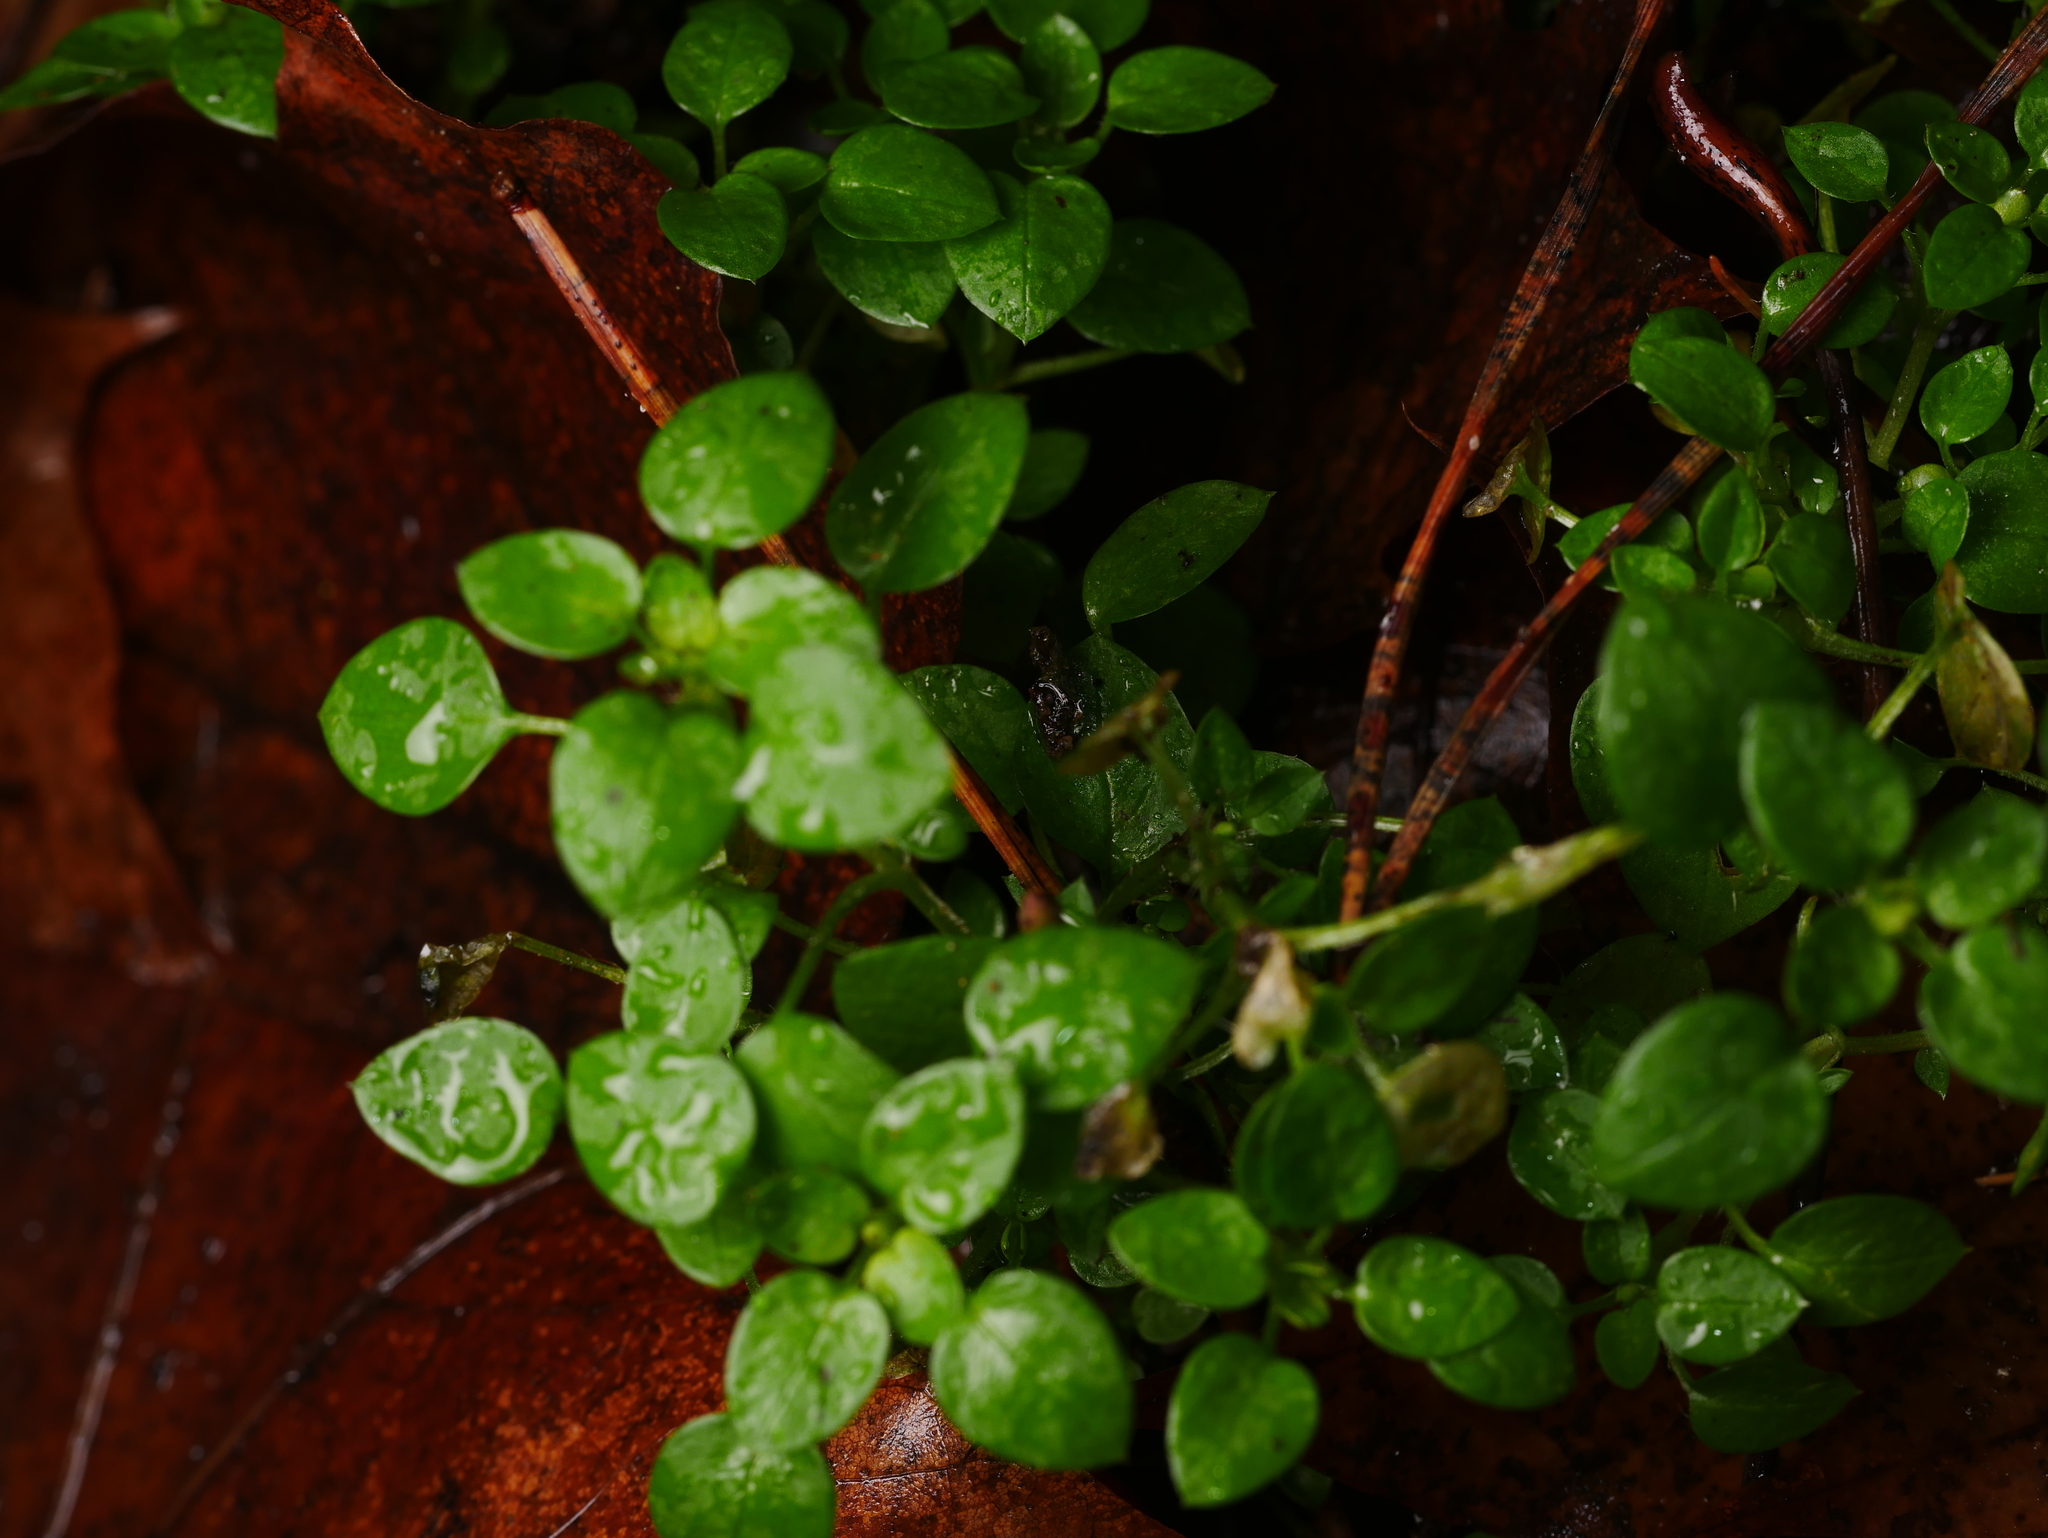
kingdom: Plantae
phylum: Tracheophyta
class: Magnoliopsida
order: Caryophyllales
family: Caryophyllaceae
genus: Stellaria
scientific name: Stellaria media
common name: Common chickweed
